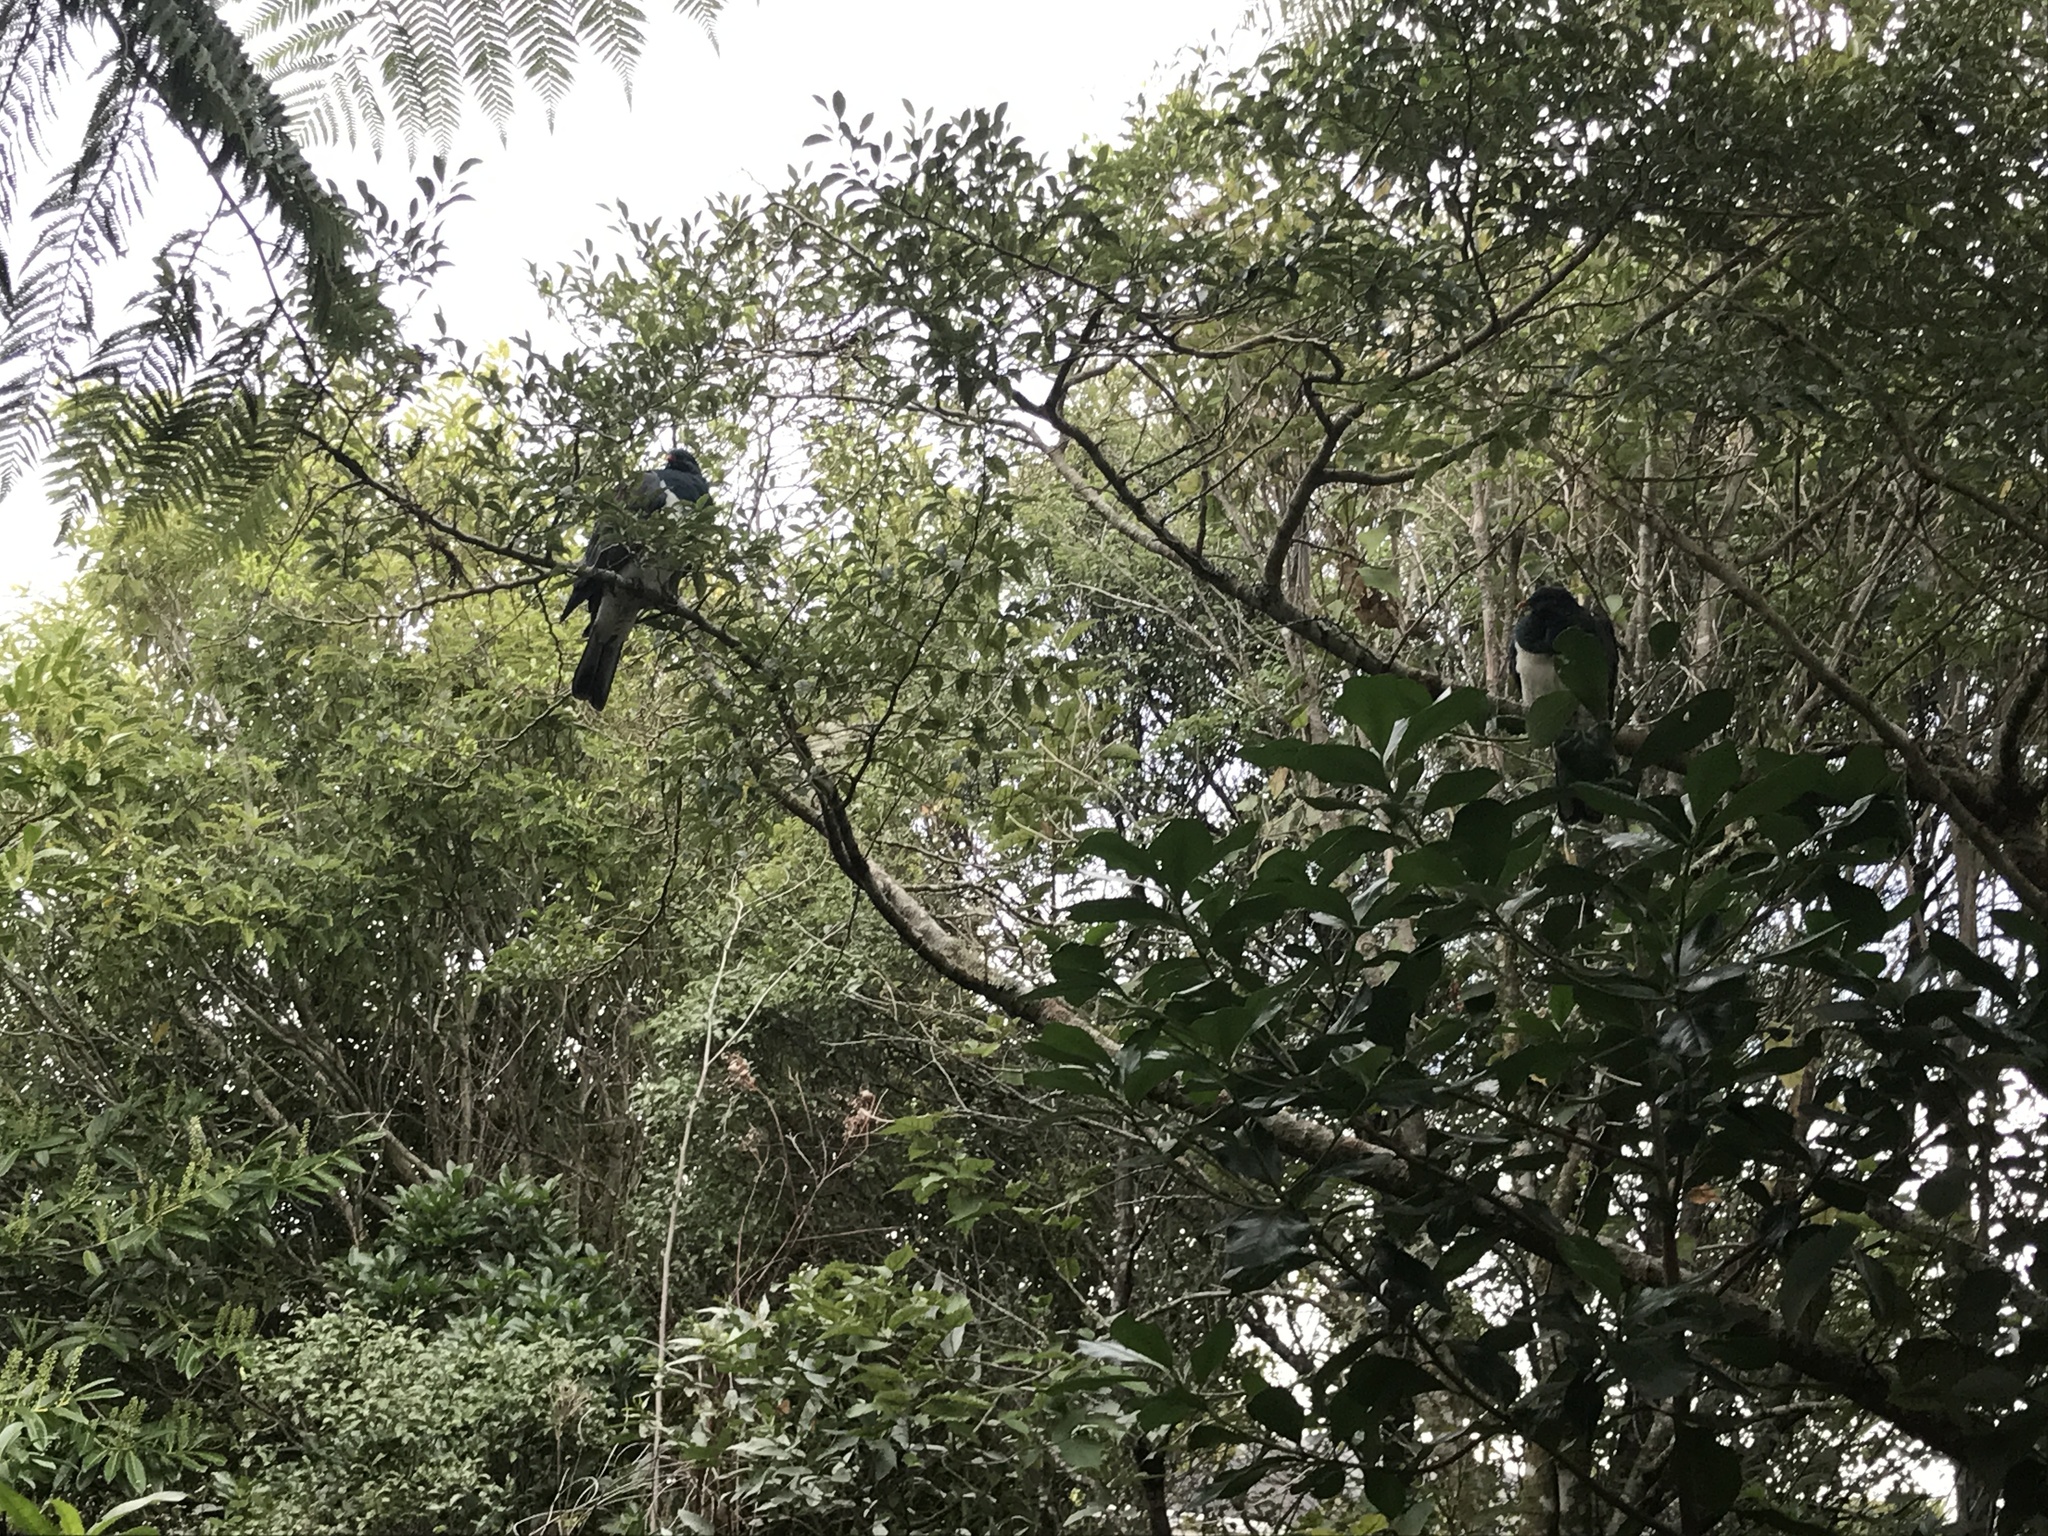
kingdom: Animalia
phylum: Chordata
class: Aves
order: Columbiformes
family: Columbidae
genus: Hemiphaga
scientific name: Hemiphaga novaeseelandiae
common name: New zealand pigeon
